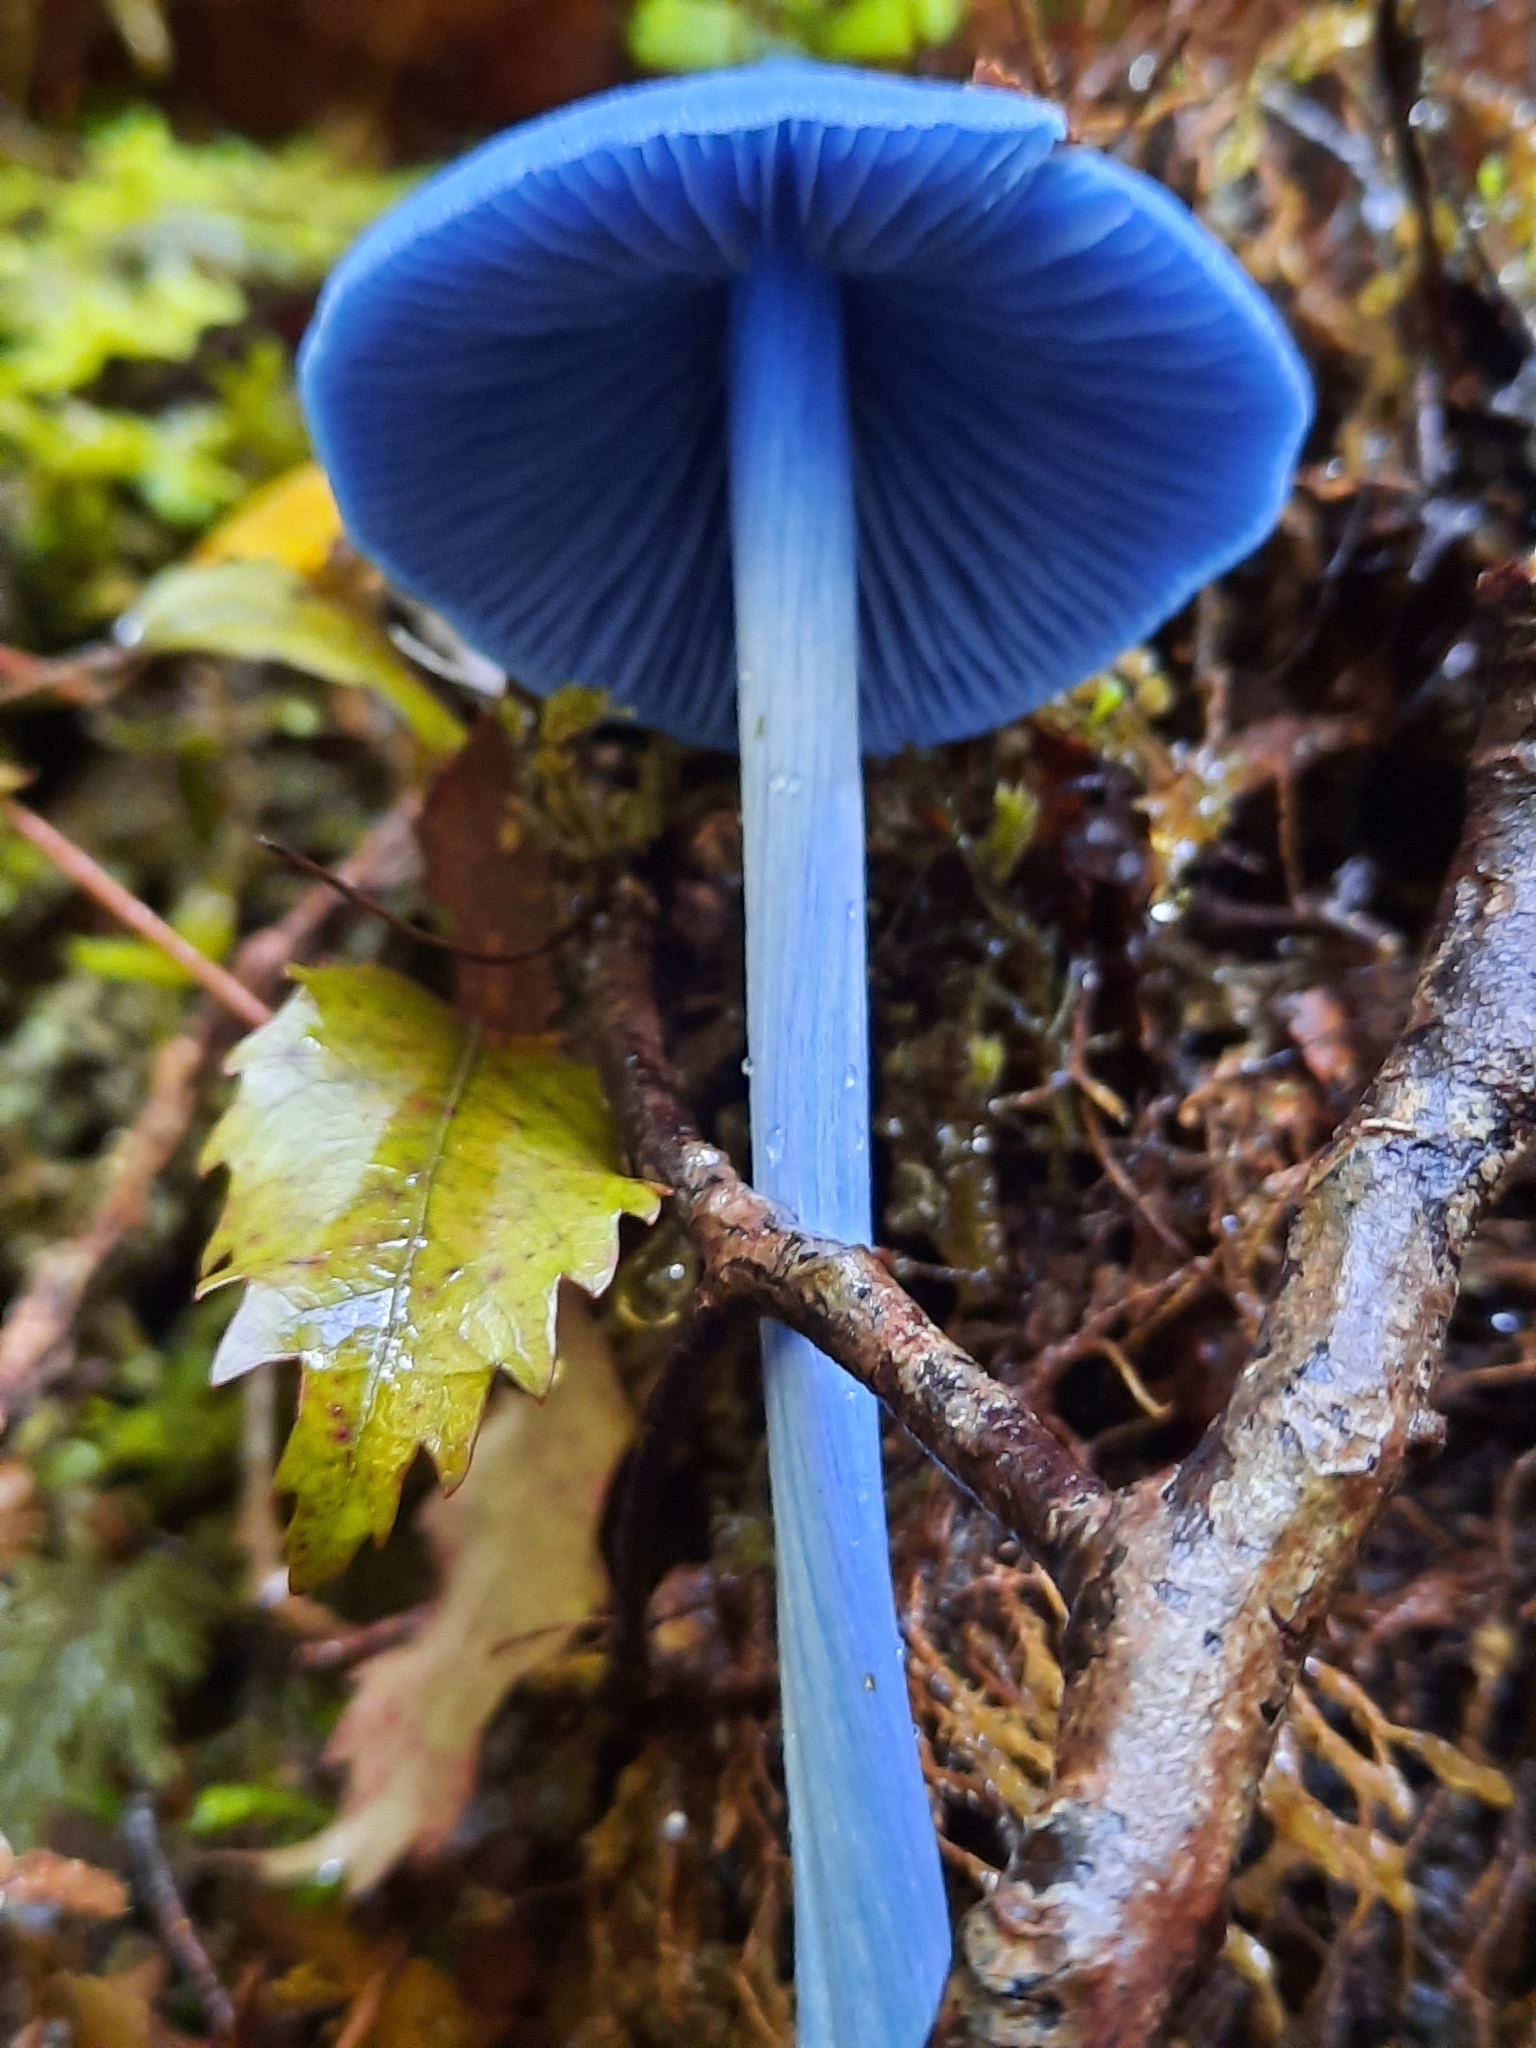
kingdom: Fungi
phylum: Basidiomycota
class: Agaricomycetes
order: Agaricales
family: Entolomataceae
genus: Entoloma
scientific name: Entoloma hochstetteri
